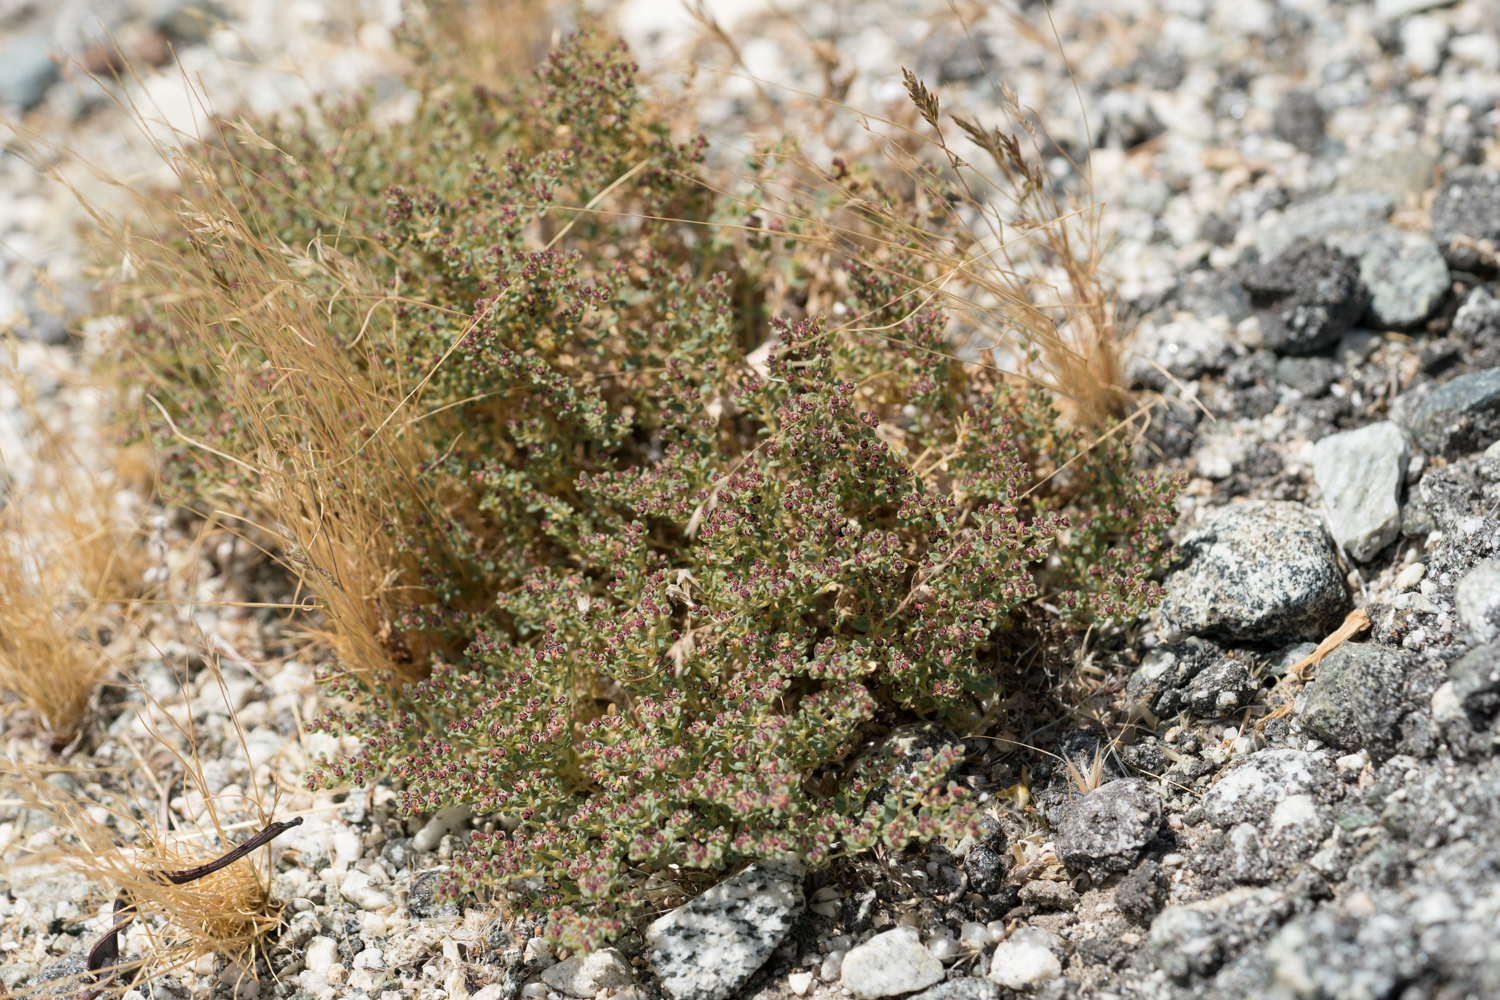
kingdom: Plantae
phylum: Tracheophyta
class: Magnoliopsida
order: Malpighiales
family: Euphorbiaceae
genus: Euphorbia
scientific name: Euphorbia polycarpa
